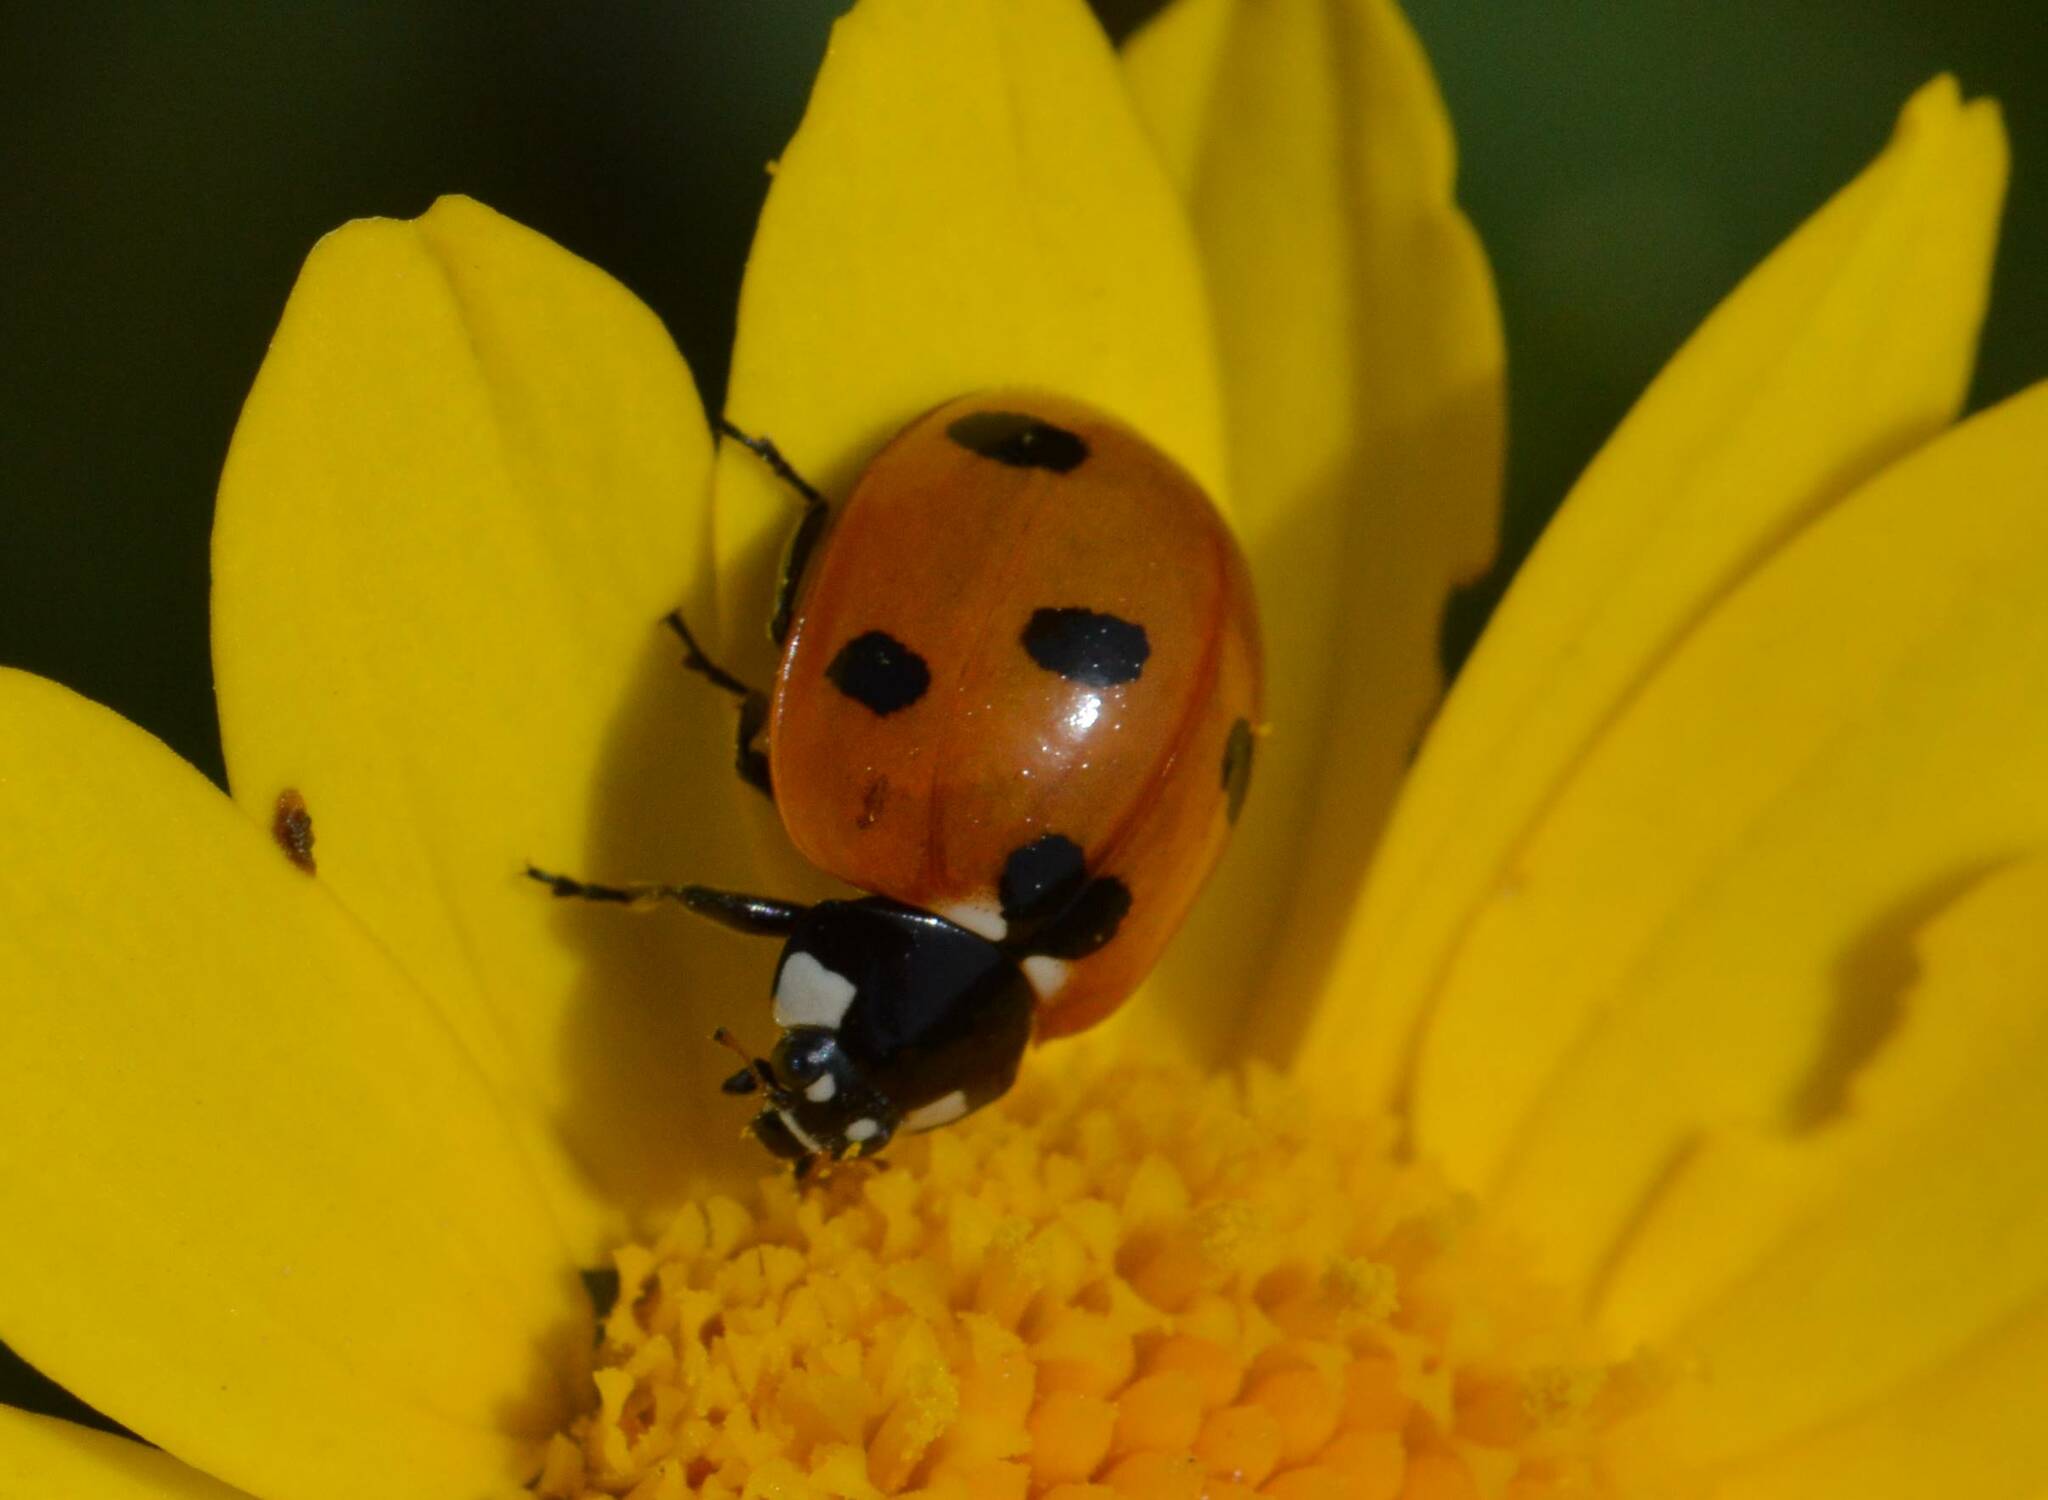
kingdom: Animalia
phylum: Arthropoda
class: Insecta
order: Coleoptera
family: Coccinellidae
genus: Coccinella
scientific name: Coccinella algerica
